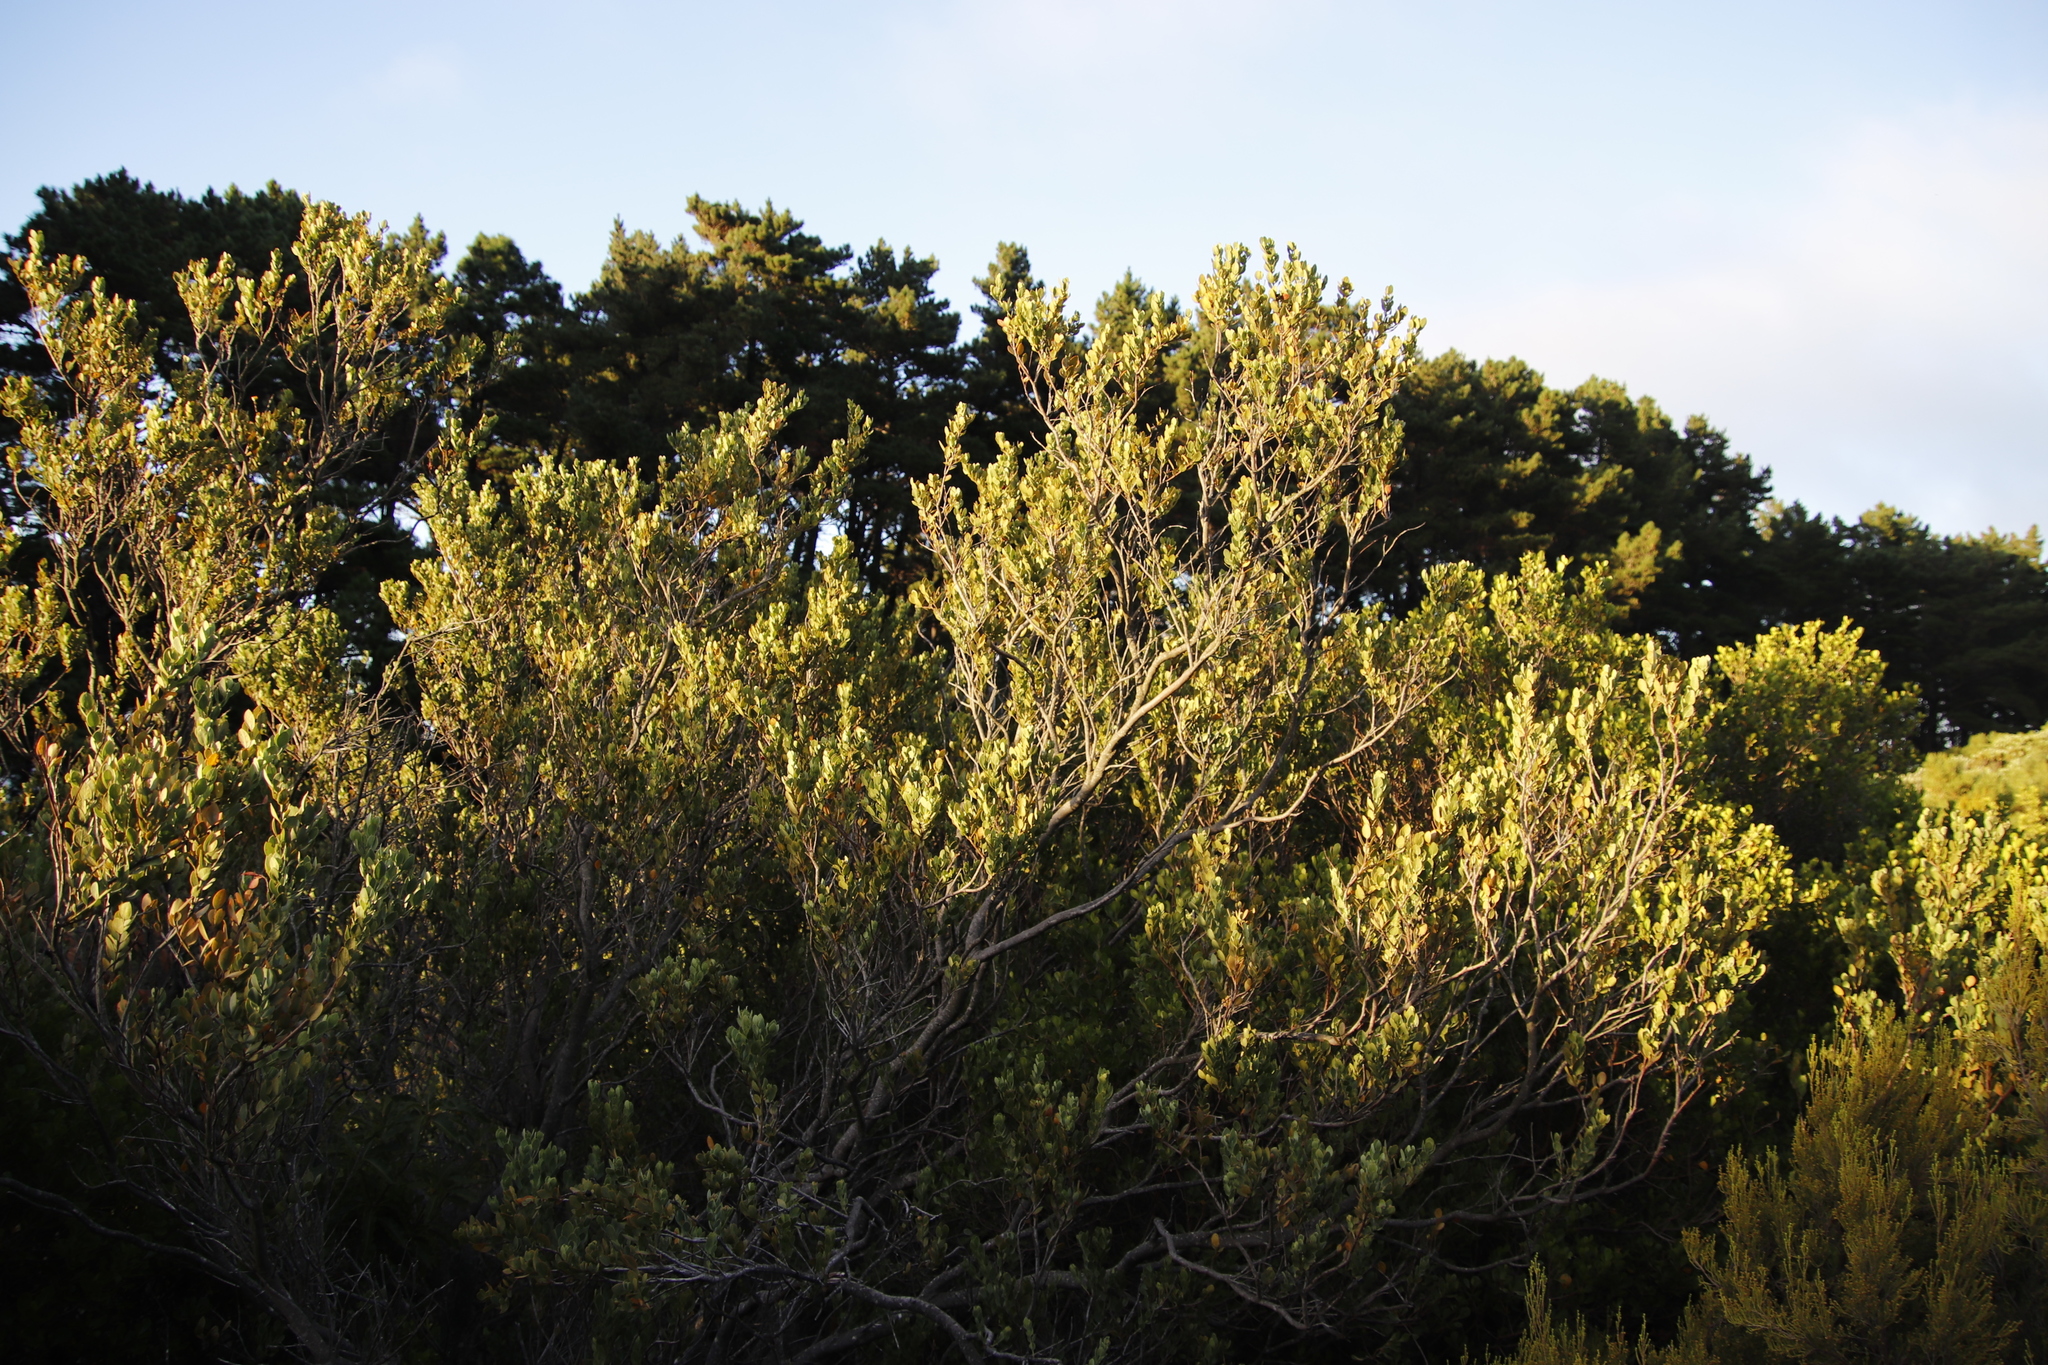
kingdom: Plantae
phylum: Tracheophyta
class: Magnoliopsida
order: Santalales
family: Santalaceae
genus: Osyris
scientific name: Osyris compressa
